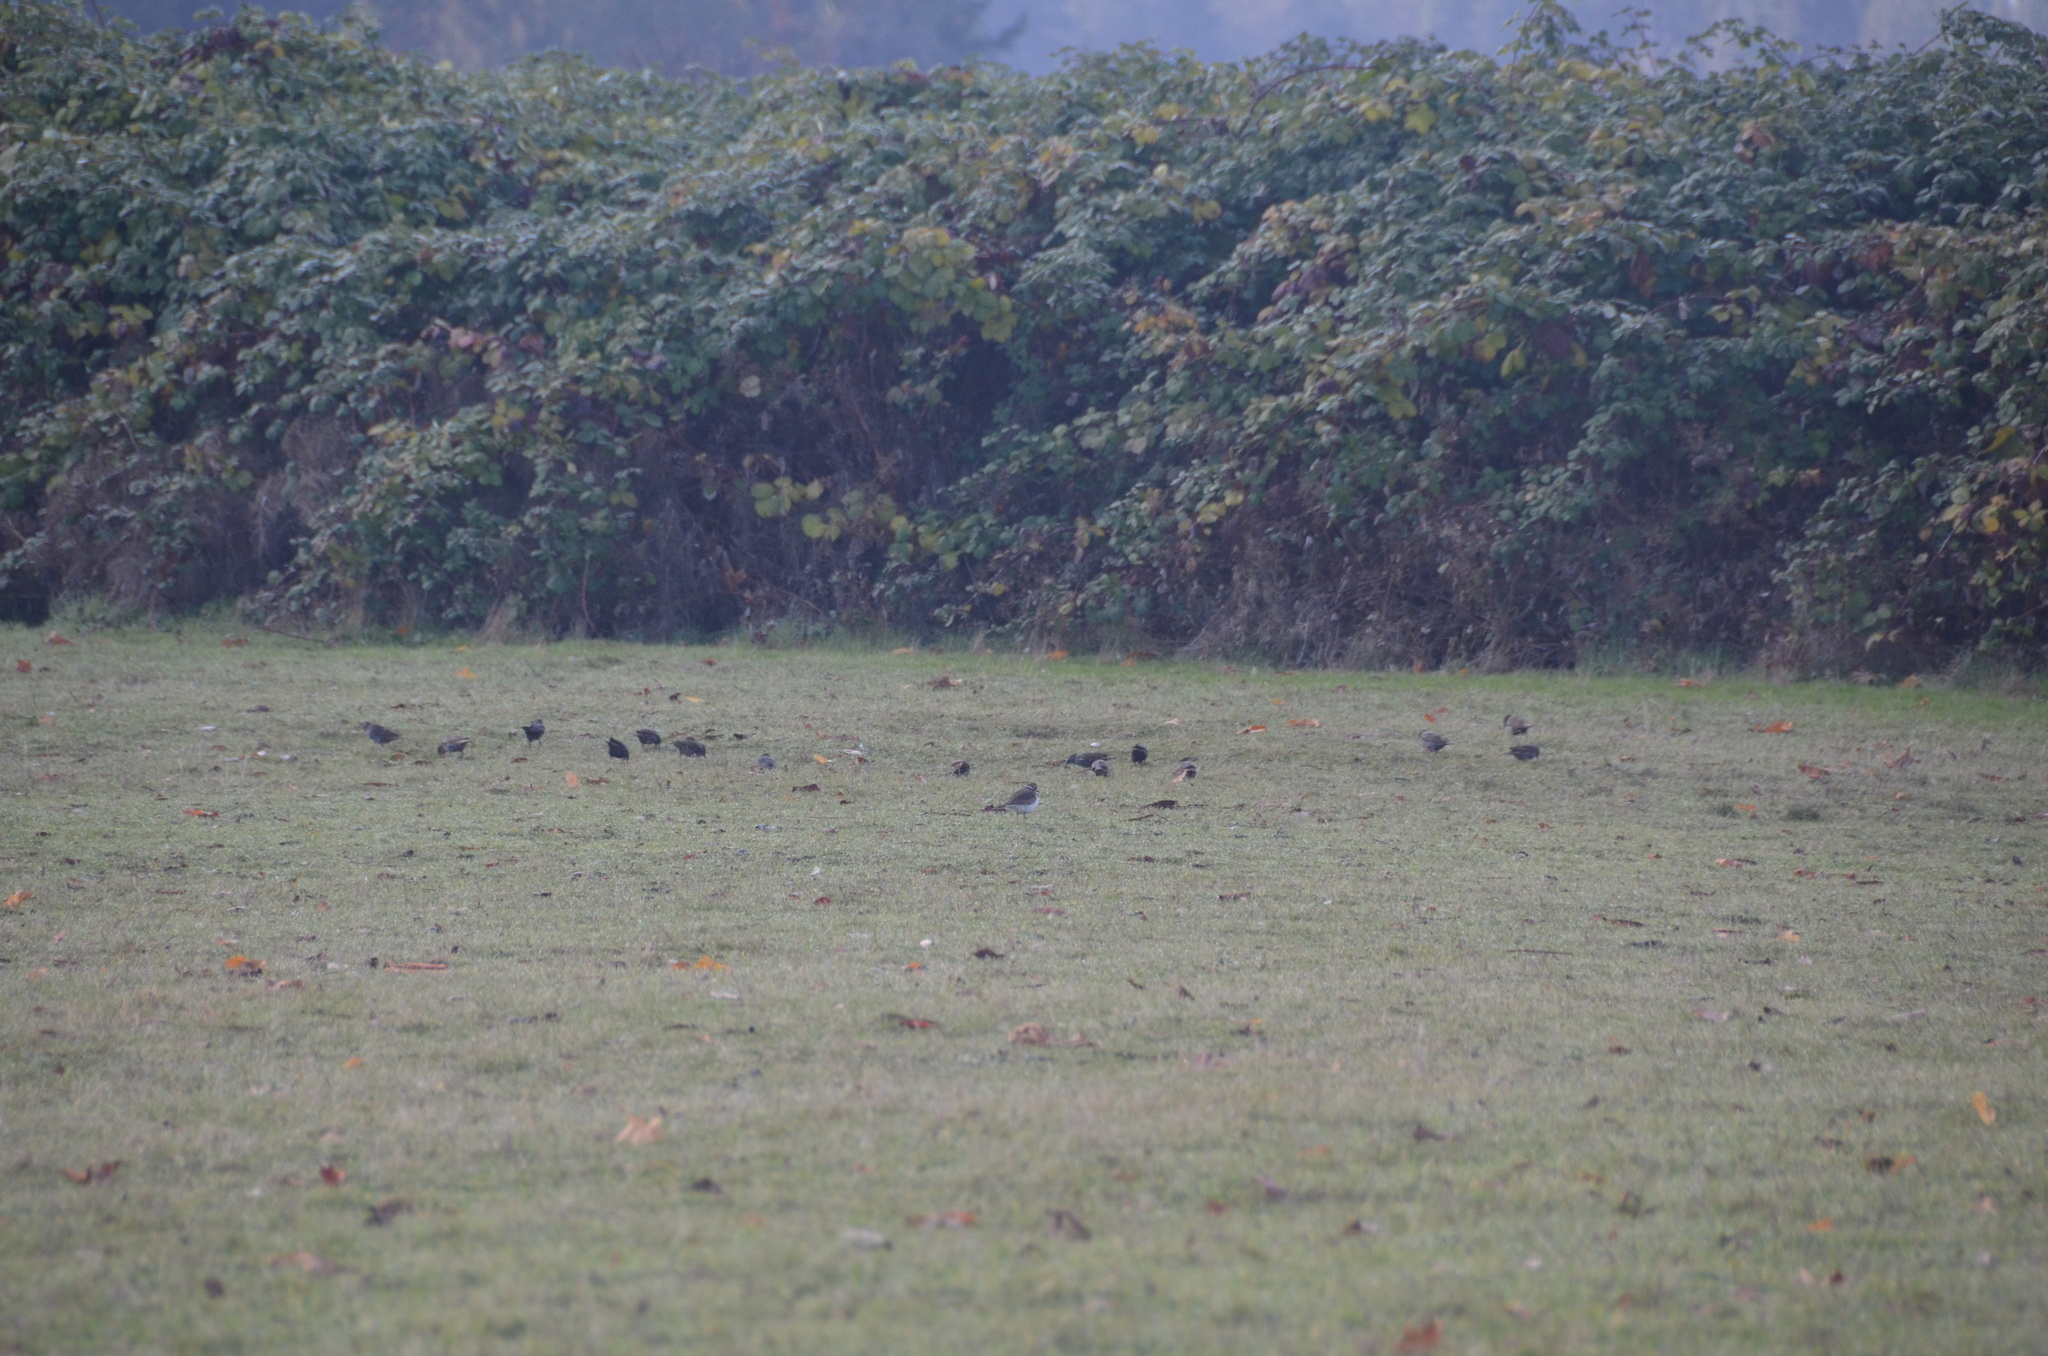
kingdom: Animalia
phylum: Chordata
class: Aves
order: Passeriformes
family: Sturnidae
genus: Sturnus
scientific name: Sturnus vulgaris
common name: Common starling
